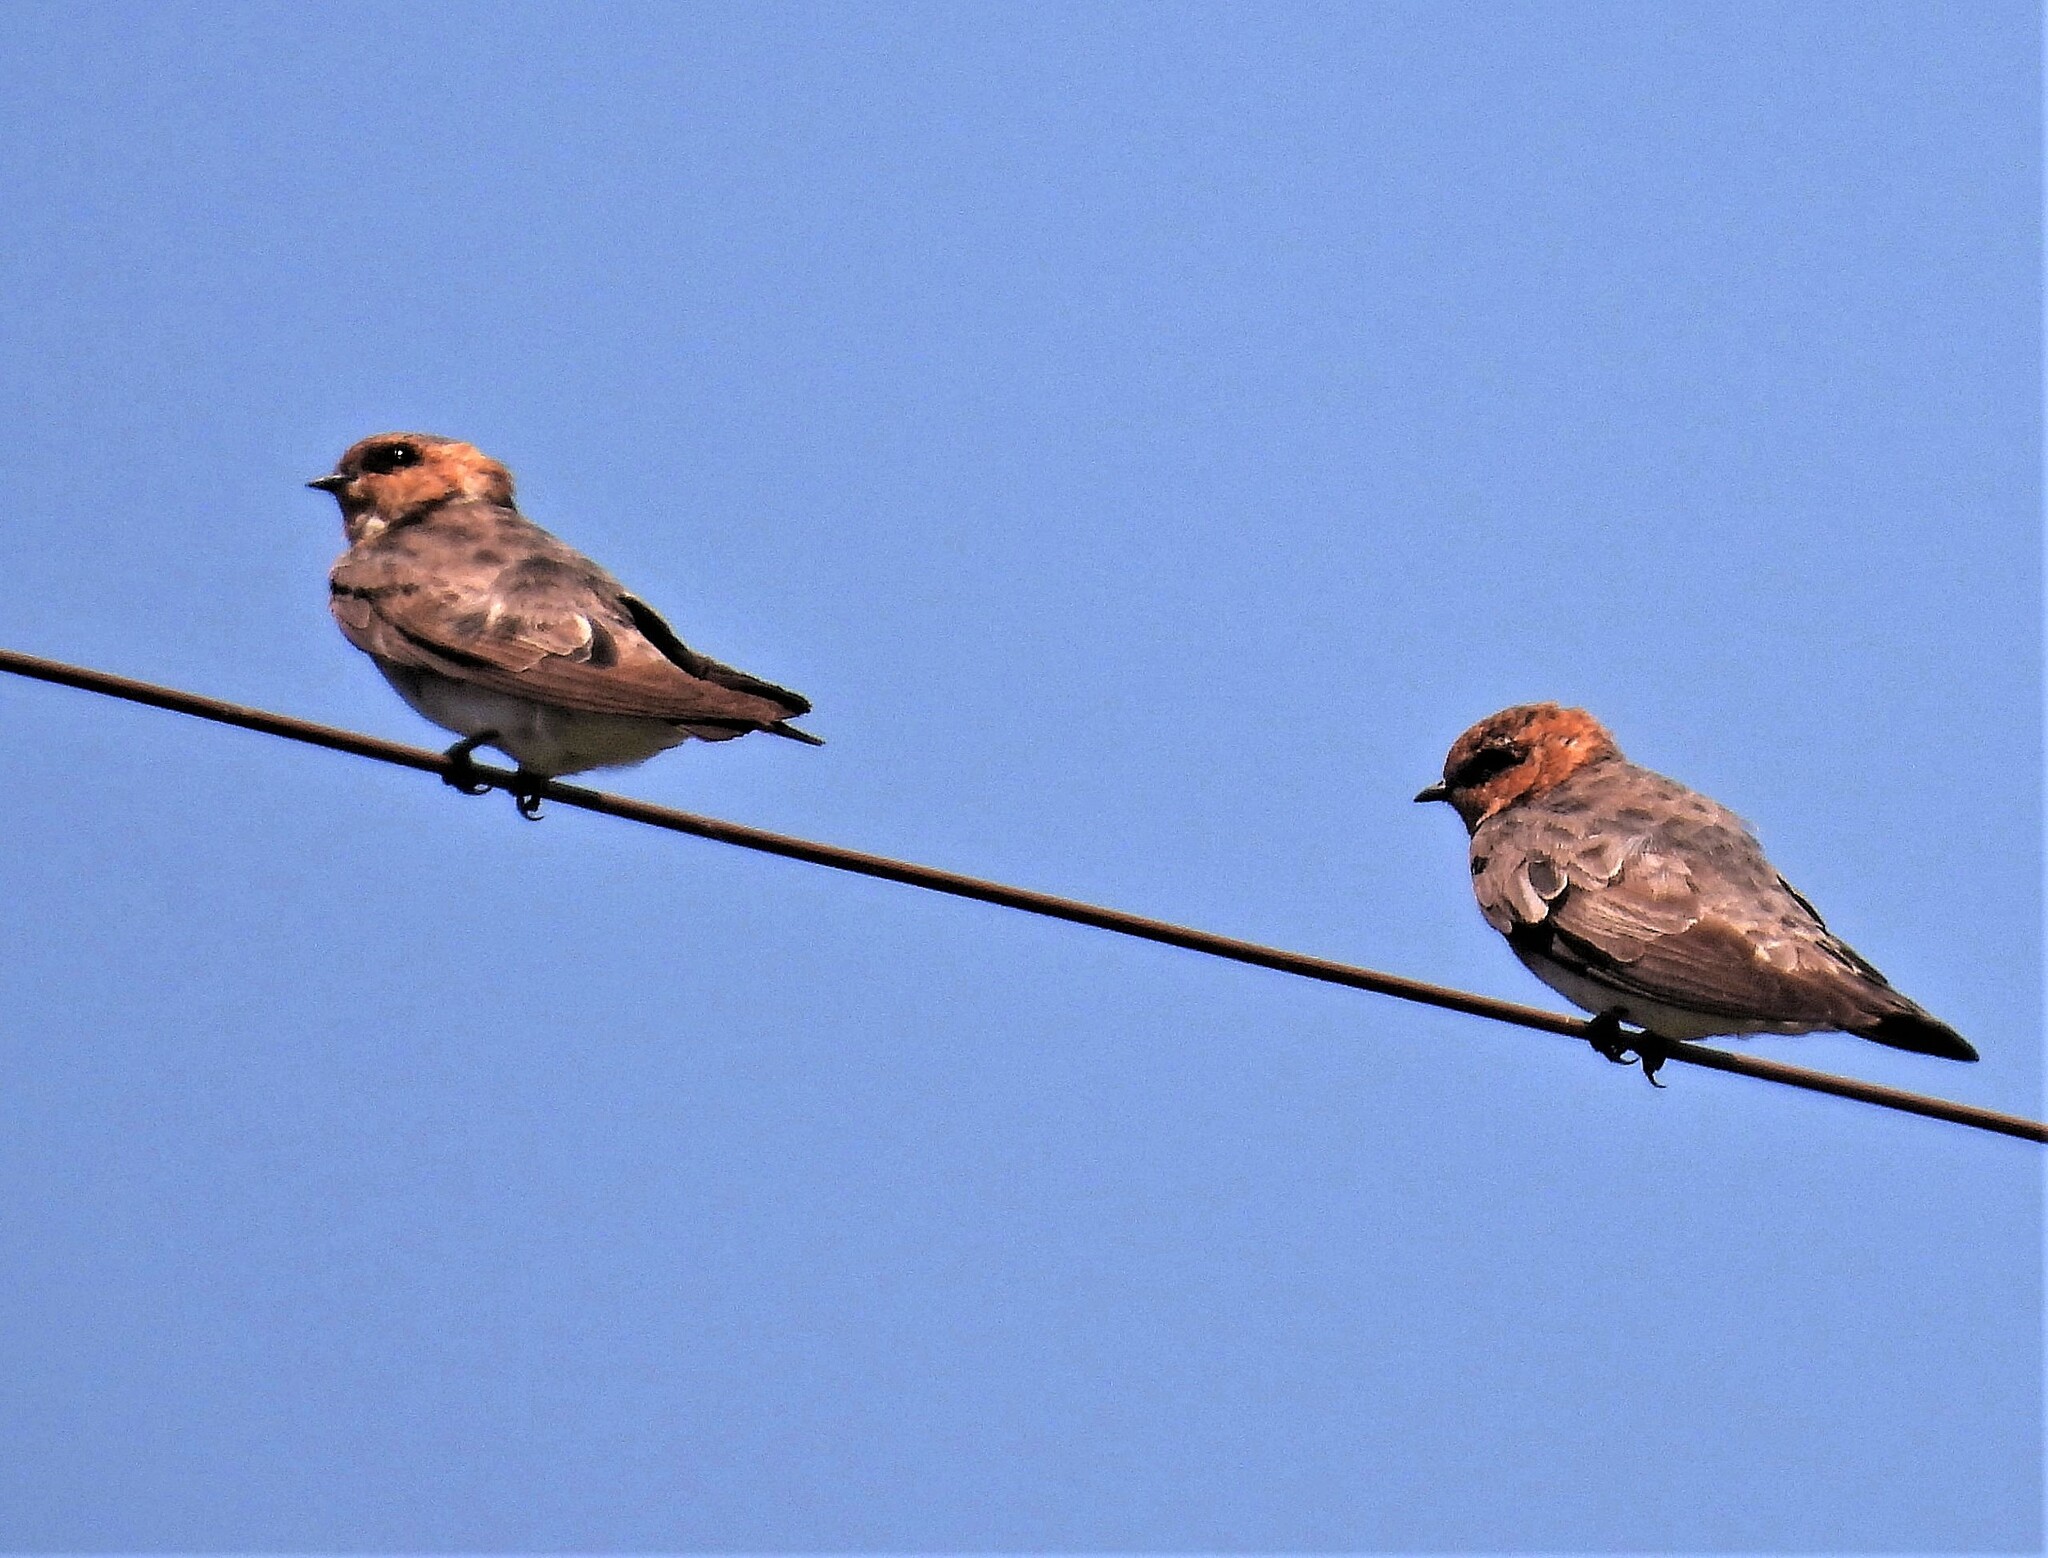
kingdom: Animalia
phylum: Chordata
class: Aves
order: Passeriformes
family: Hirundinidae
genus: Alopochelidon
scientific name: Alopochelidon fucata
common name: Tawny-headed swallow
